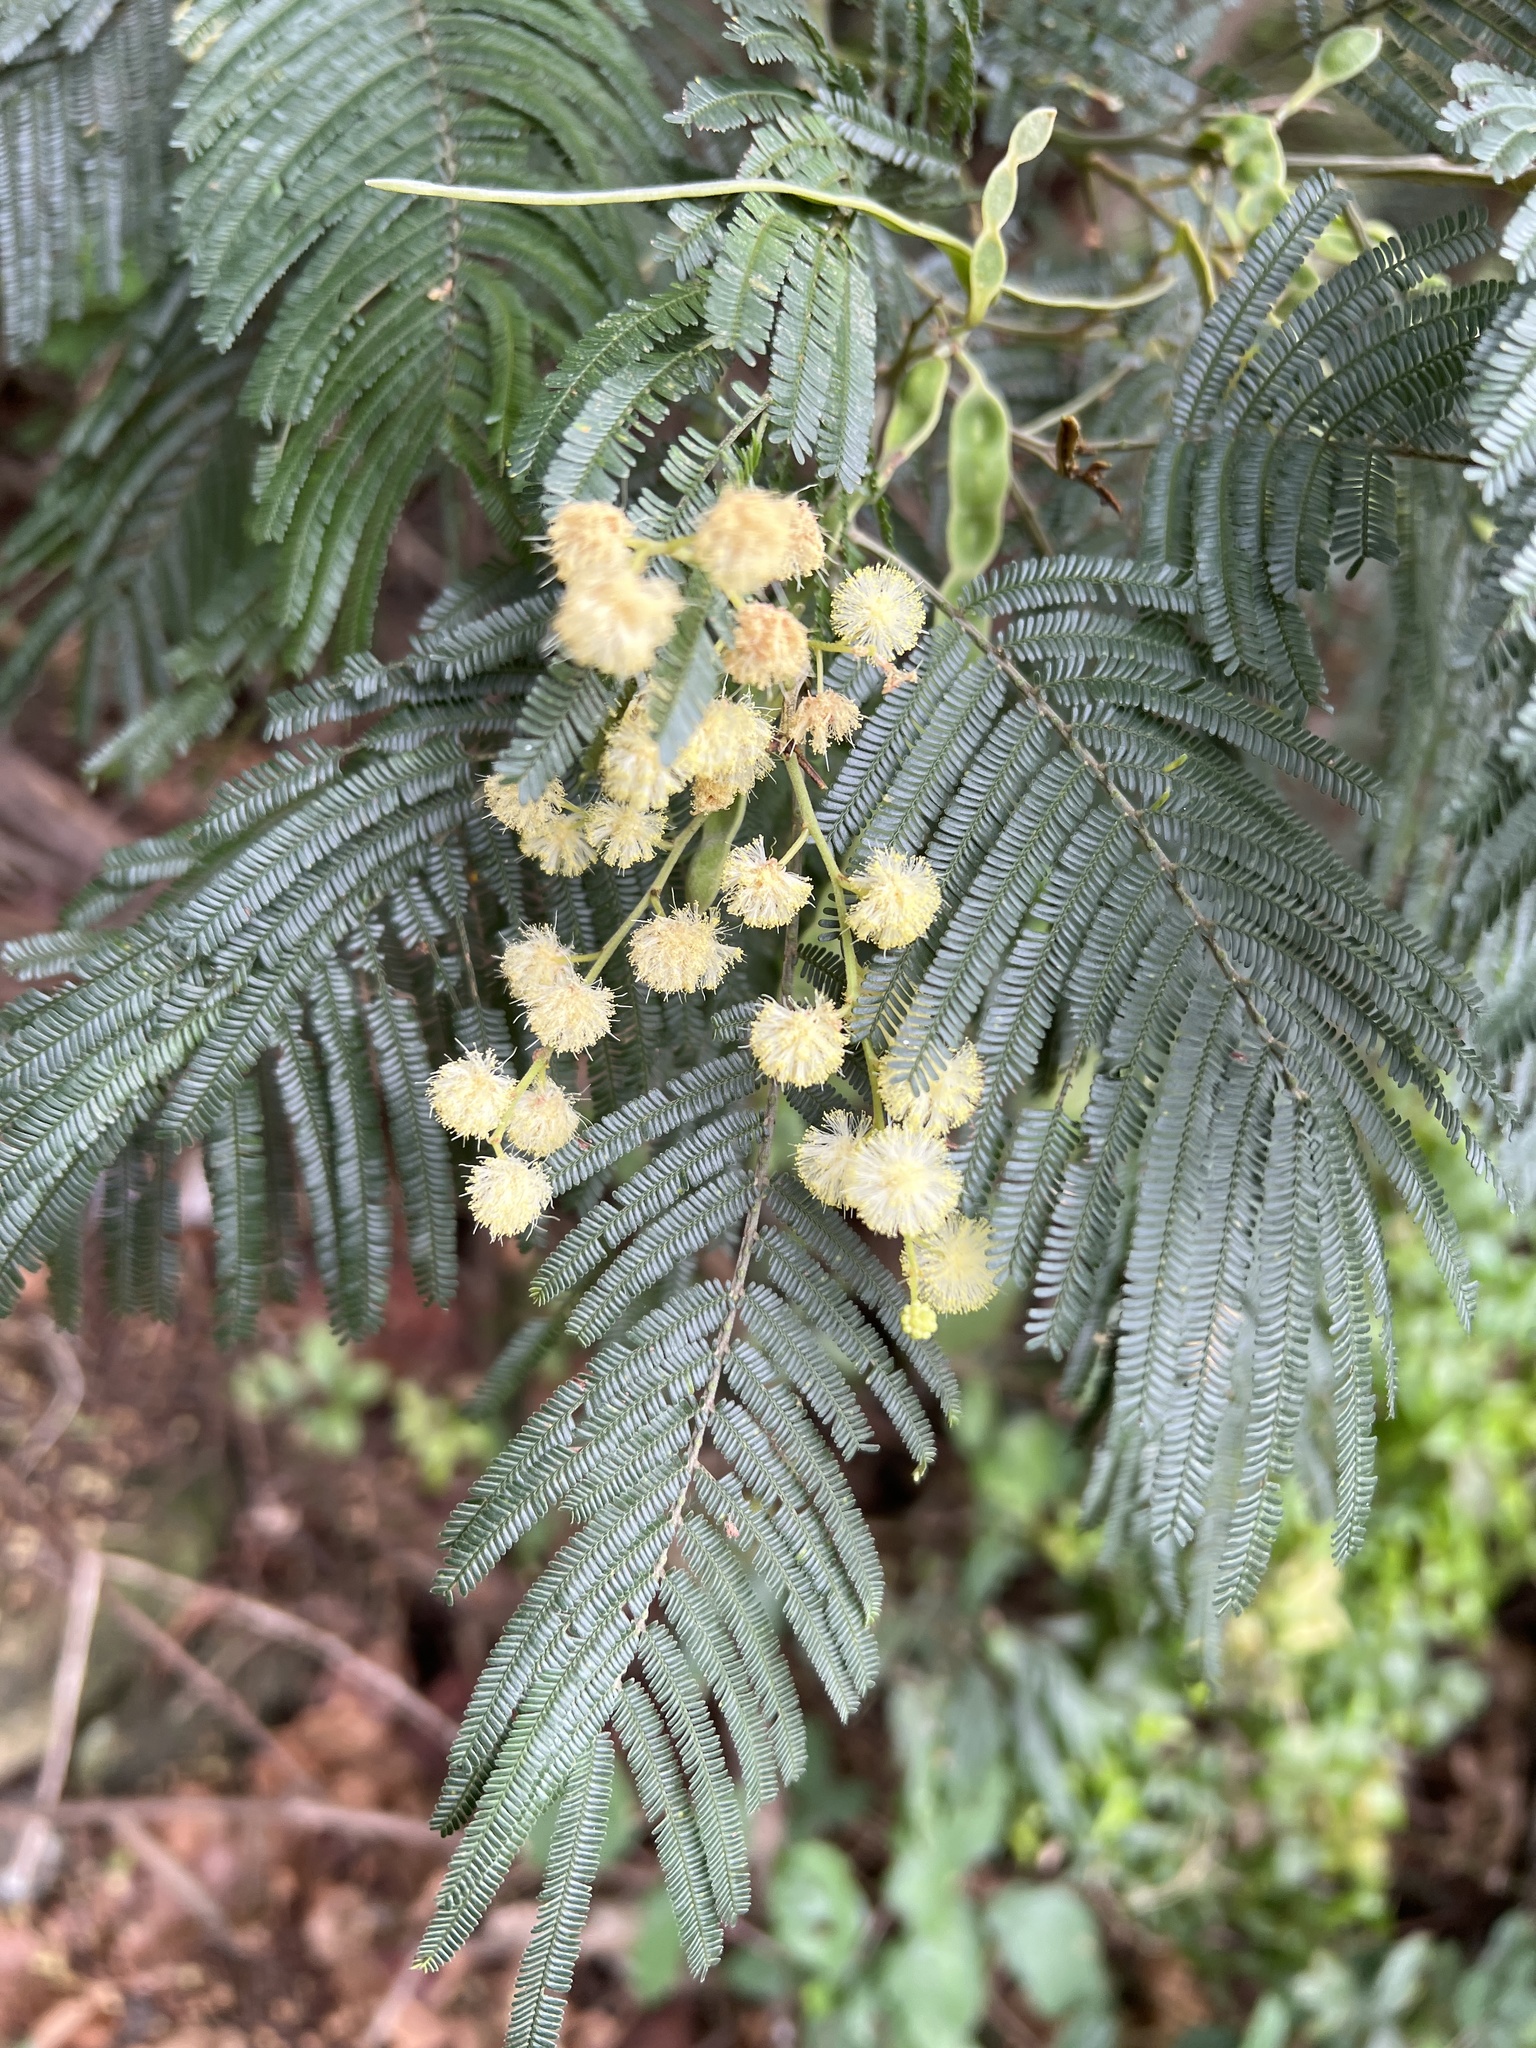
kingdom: Plantae
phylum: Tracheophyta
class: Magnoliopsida
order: Fabales
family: Fabaceae
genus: Acacia
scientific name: Acacia mearnsii
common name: Black wattle
